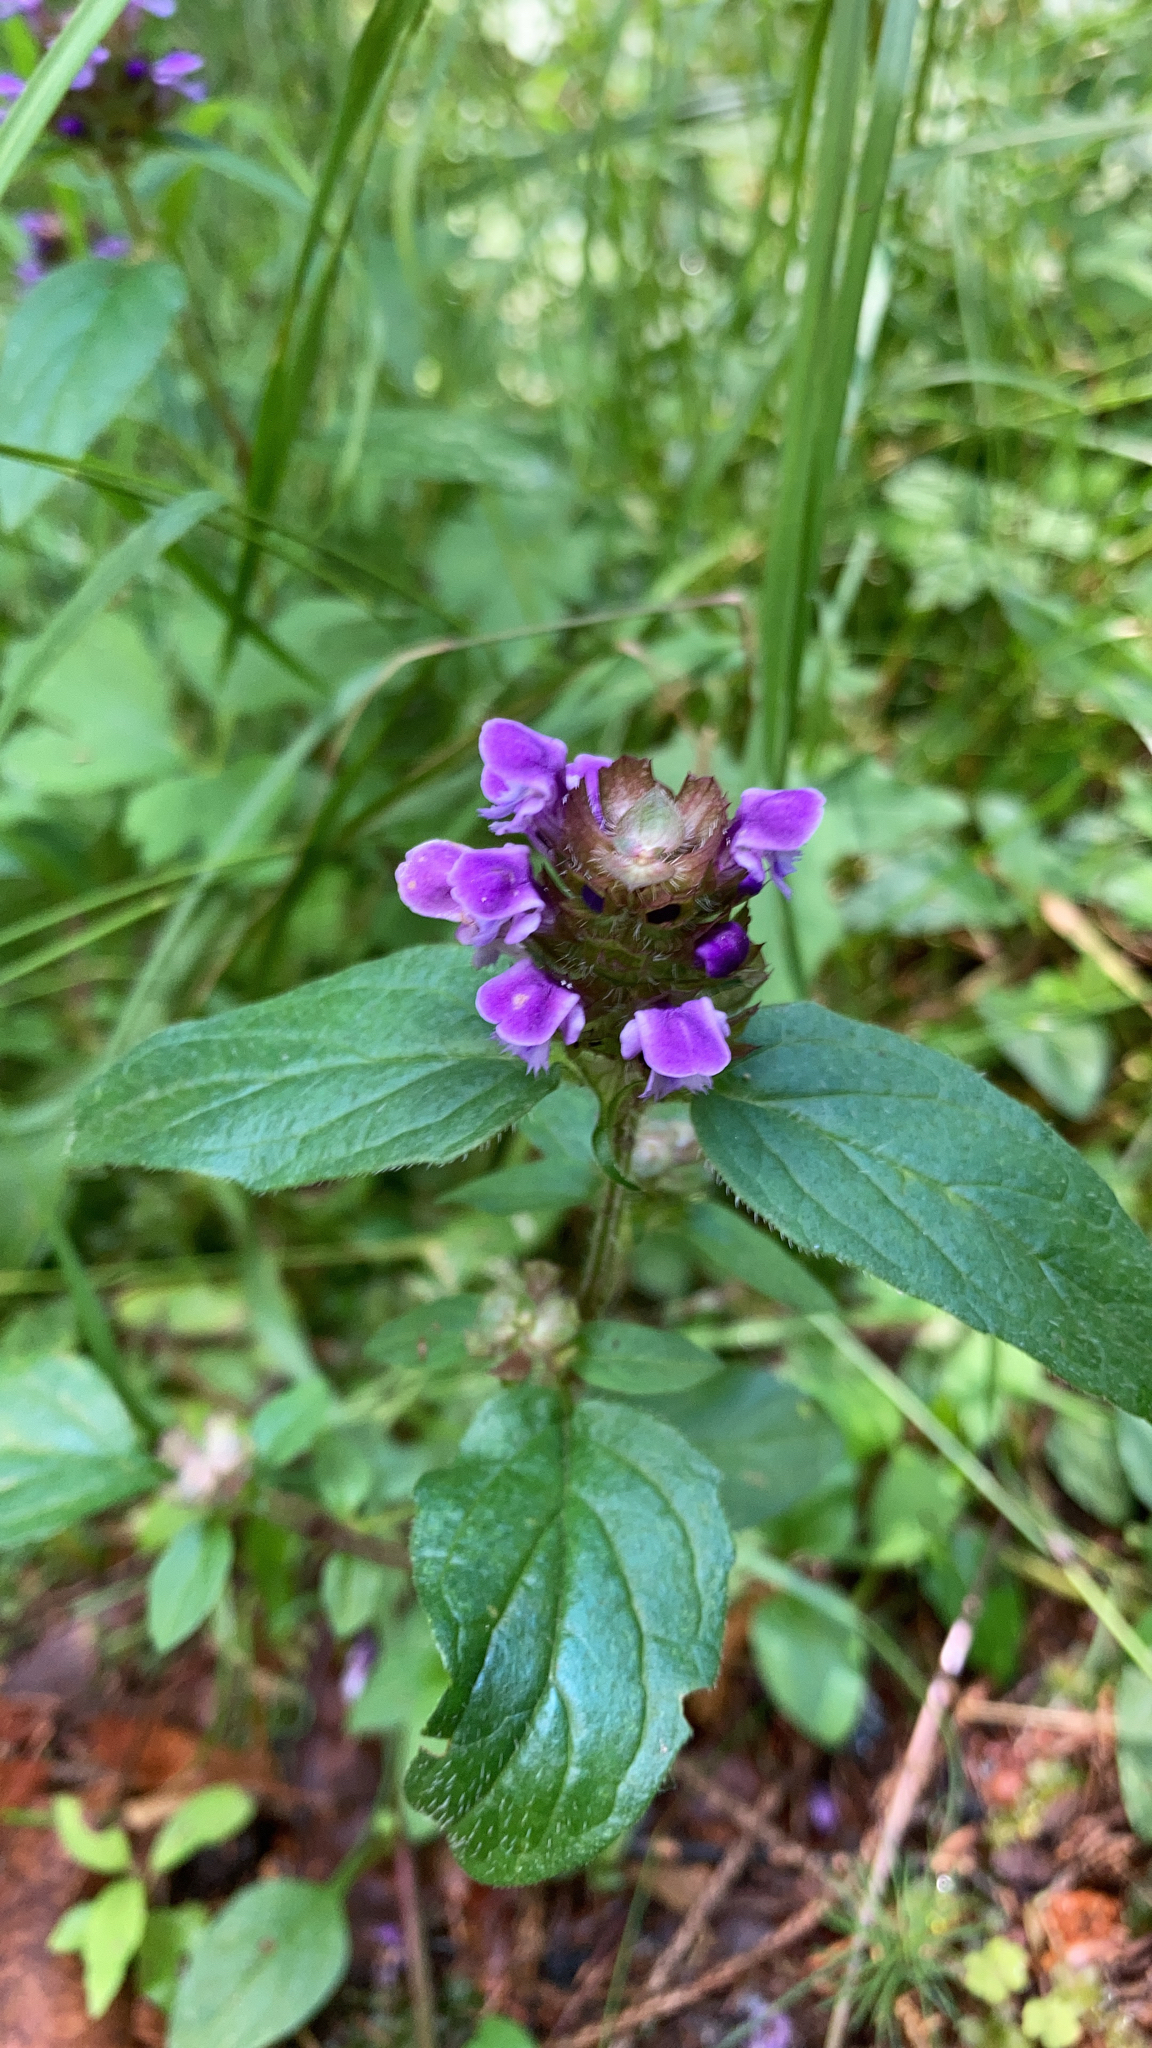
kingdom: Plantae
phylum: Tracheophyta
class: Magnoliopsida
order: Lamiales
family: Lamiaceae
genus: Prunella
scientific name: Prunella vulgaris
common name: Heal-all
